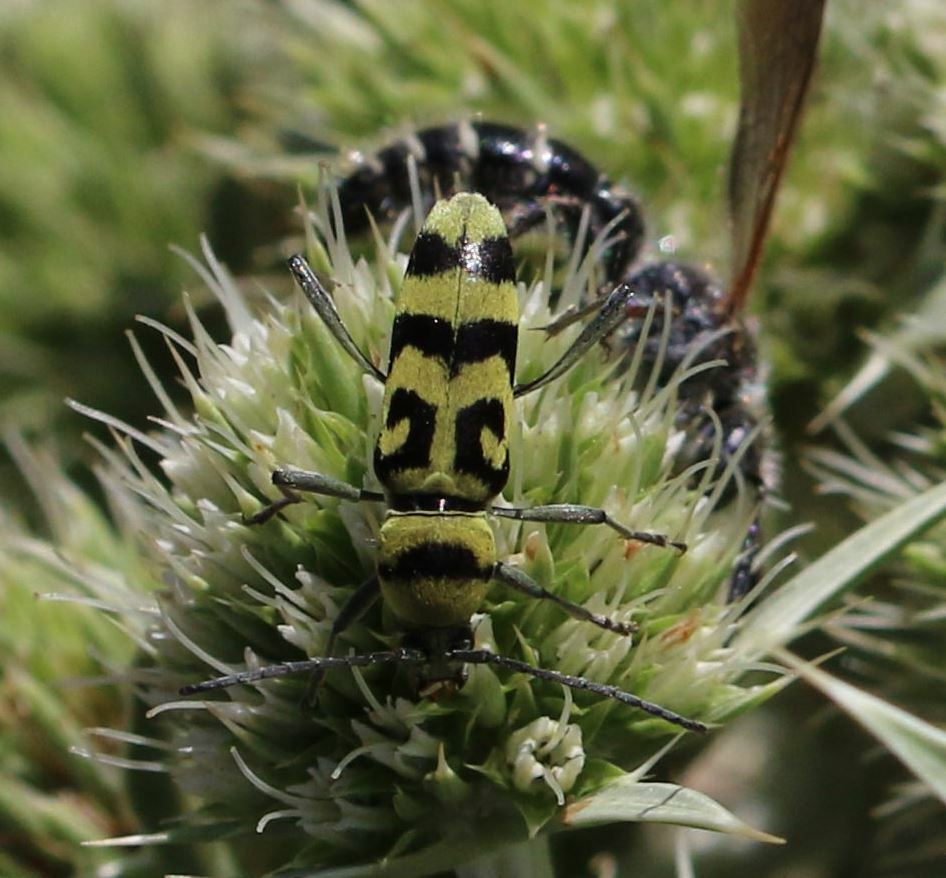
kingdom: Animalia
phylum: Arthropoda
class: Insecta
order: Coleoptera
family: Cerambycidae
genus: Chlorophorus
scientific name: Chlorophorus varius
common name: Grape wood borer
